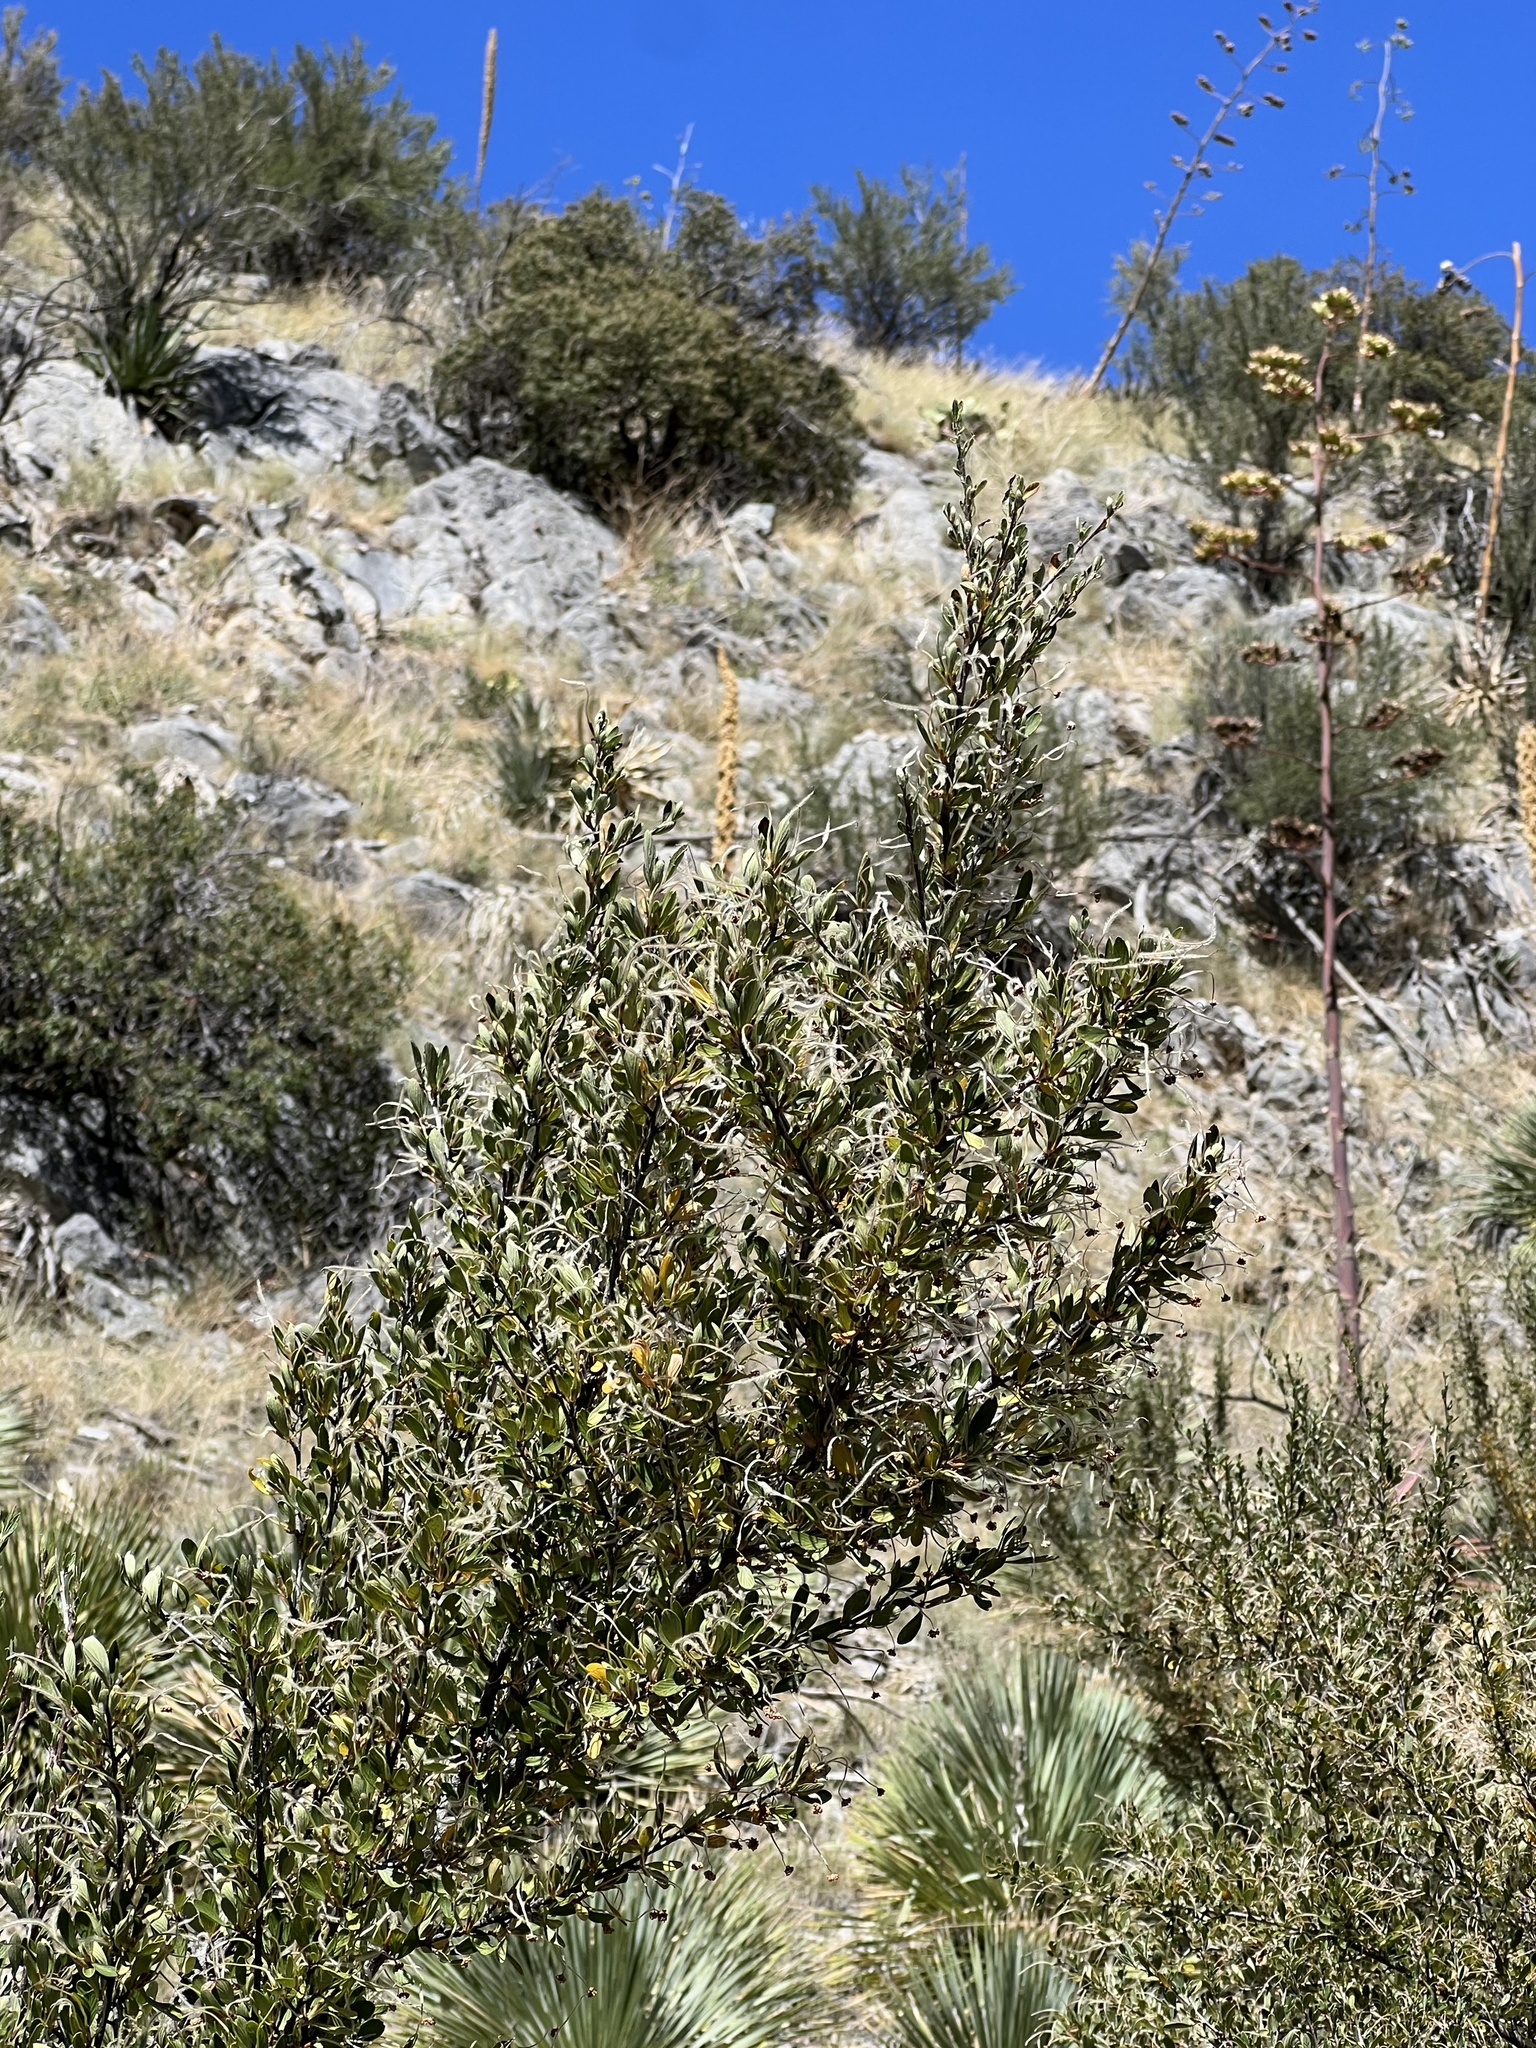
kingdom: Plantae
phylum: Tracheophyta
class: Magnoliopsida
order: Rosales
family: Rosaceae
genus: Cercocarpus
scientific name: Cercocarpus breviflorus
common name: Wright's mountain-mahogany
